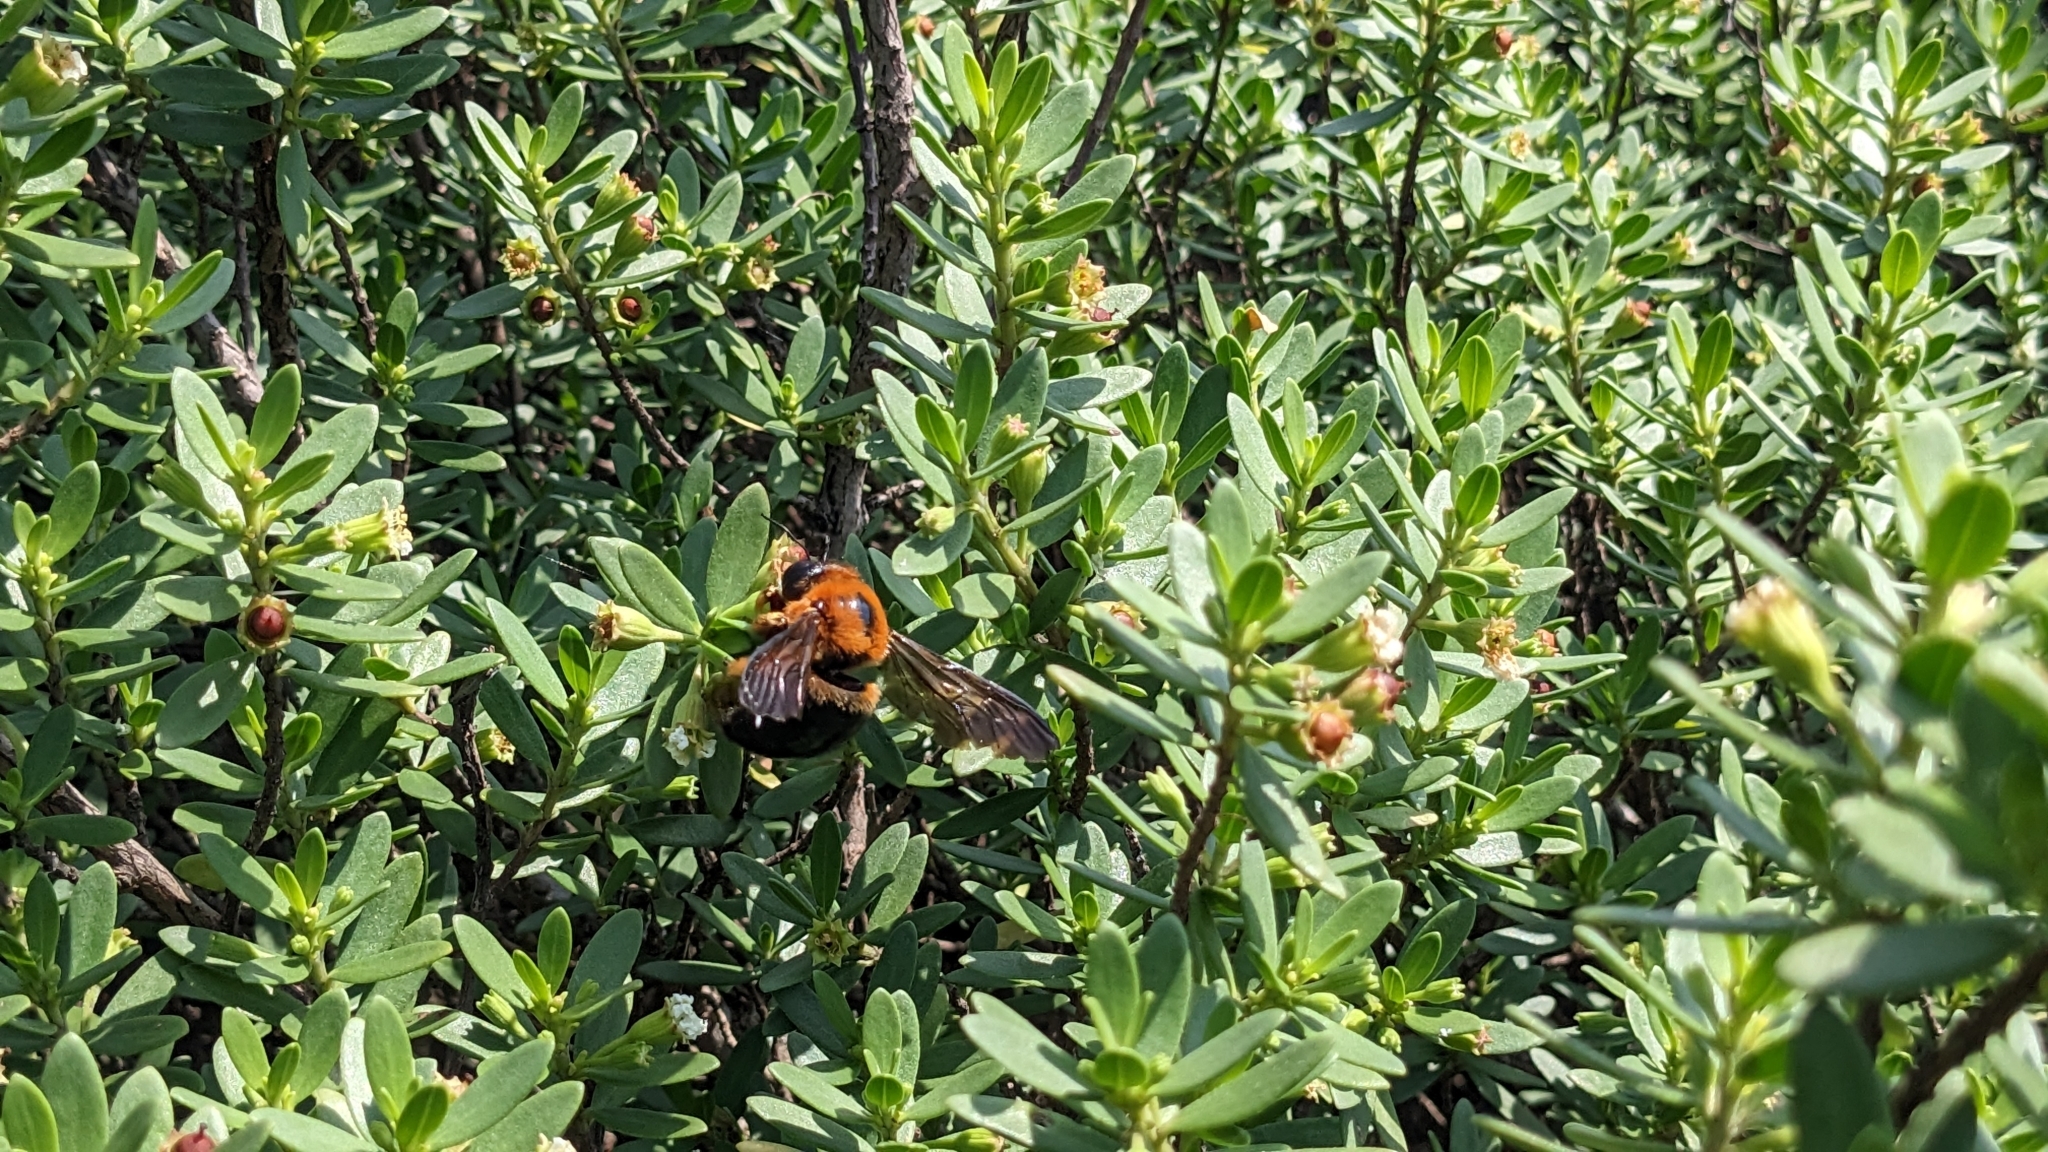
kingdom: Animalia
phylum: Arthropoda
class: Insecta
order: Hymenoptera
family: Apidae
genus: Xylocopa
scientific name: Xylocopa ruficeps
